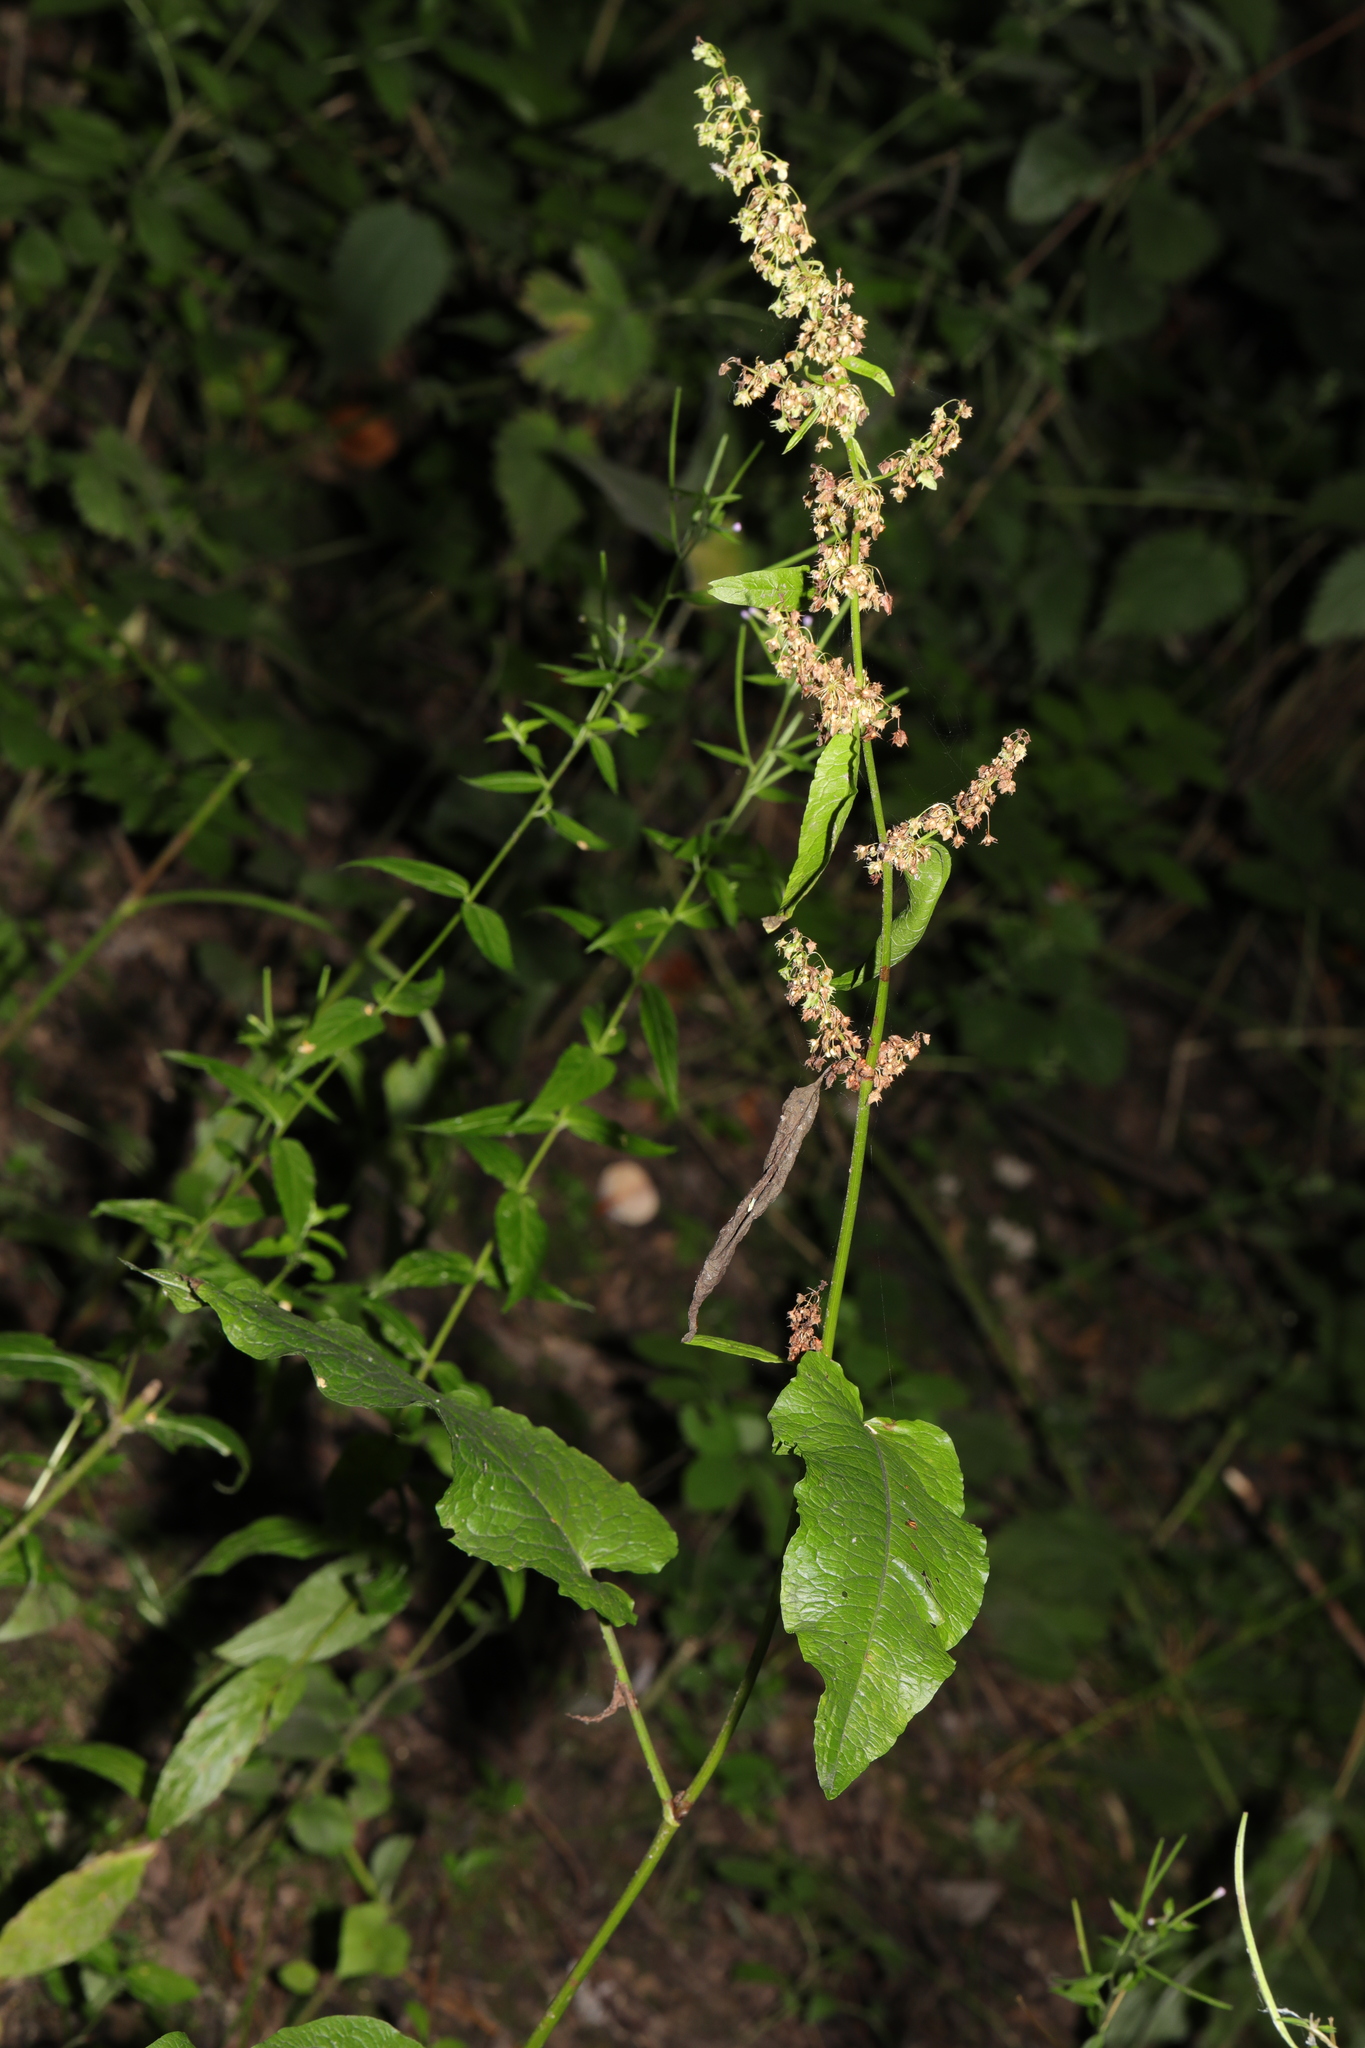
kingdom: Plantae
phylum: Tracheophyta
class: Magnoliopsida
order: Caryophyllales
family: Polygonaceae
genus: Rumex
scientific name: Rumex obtusifolius
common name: Bitter dock
